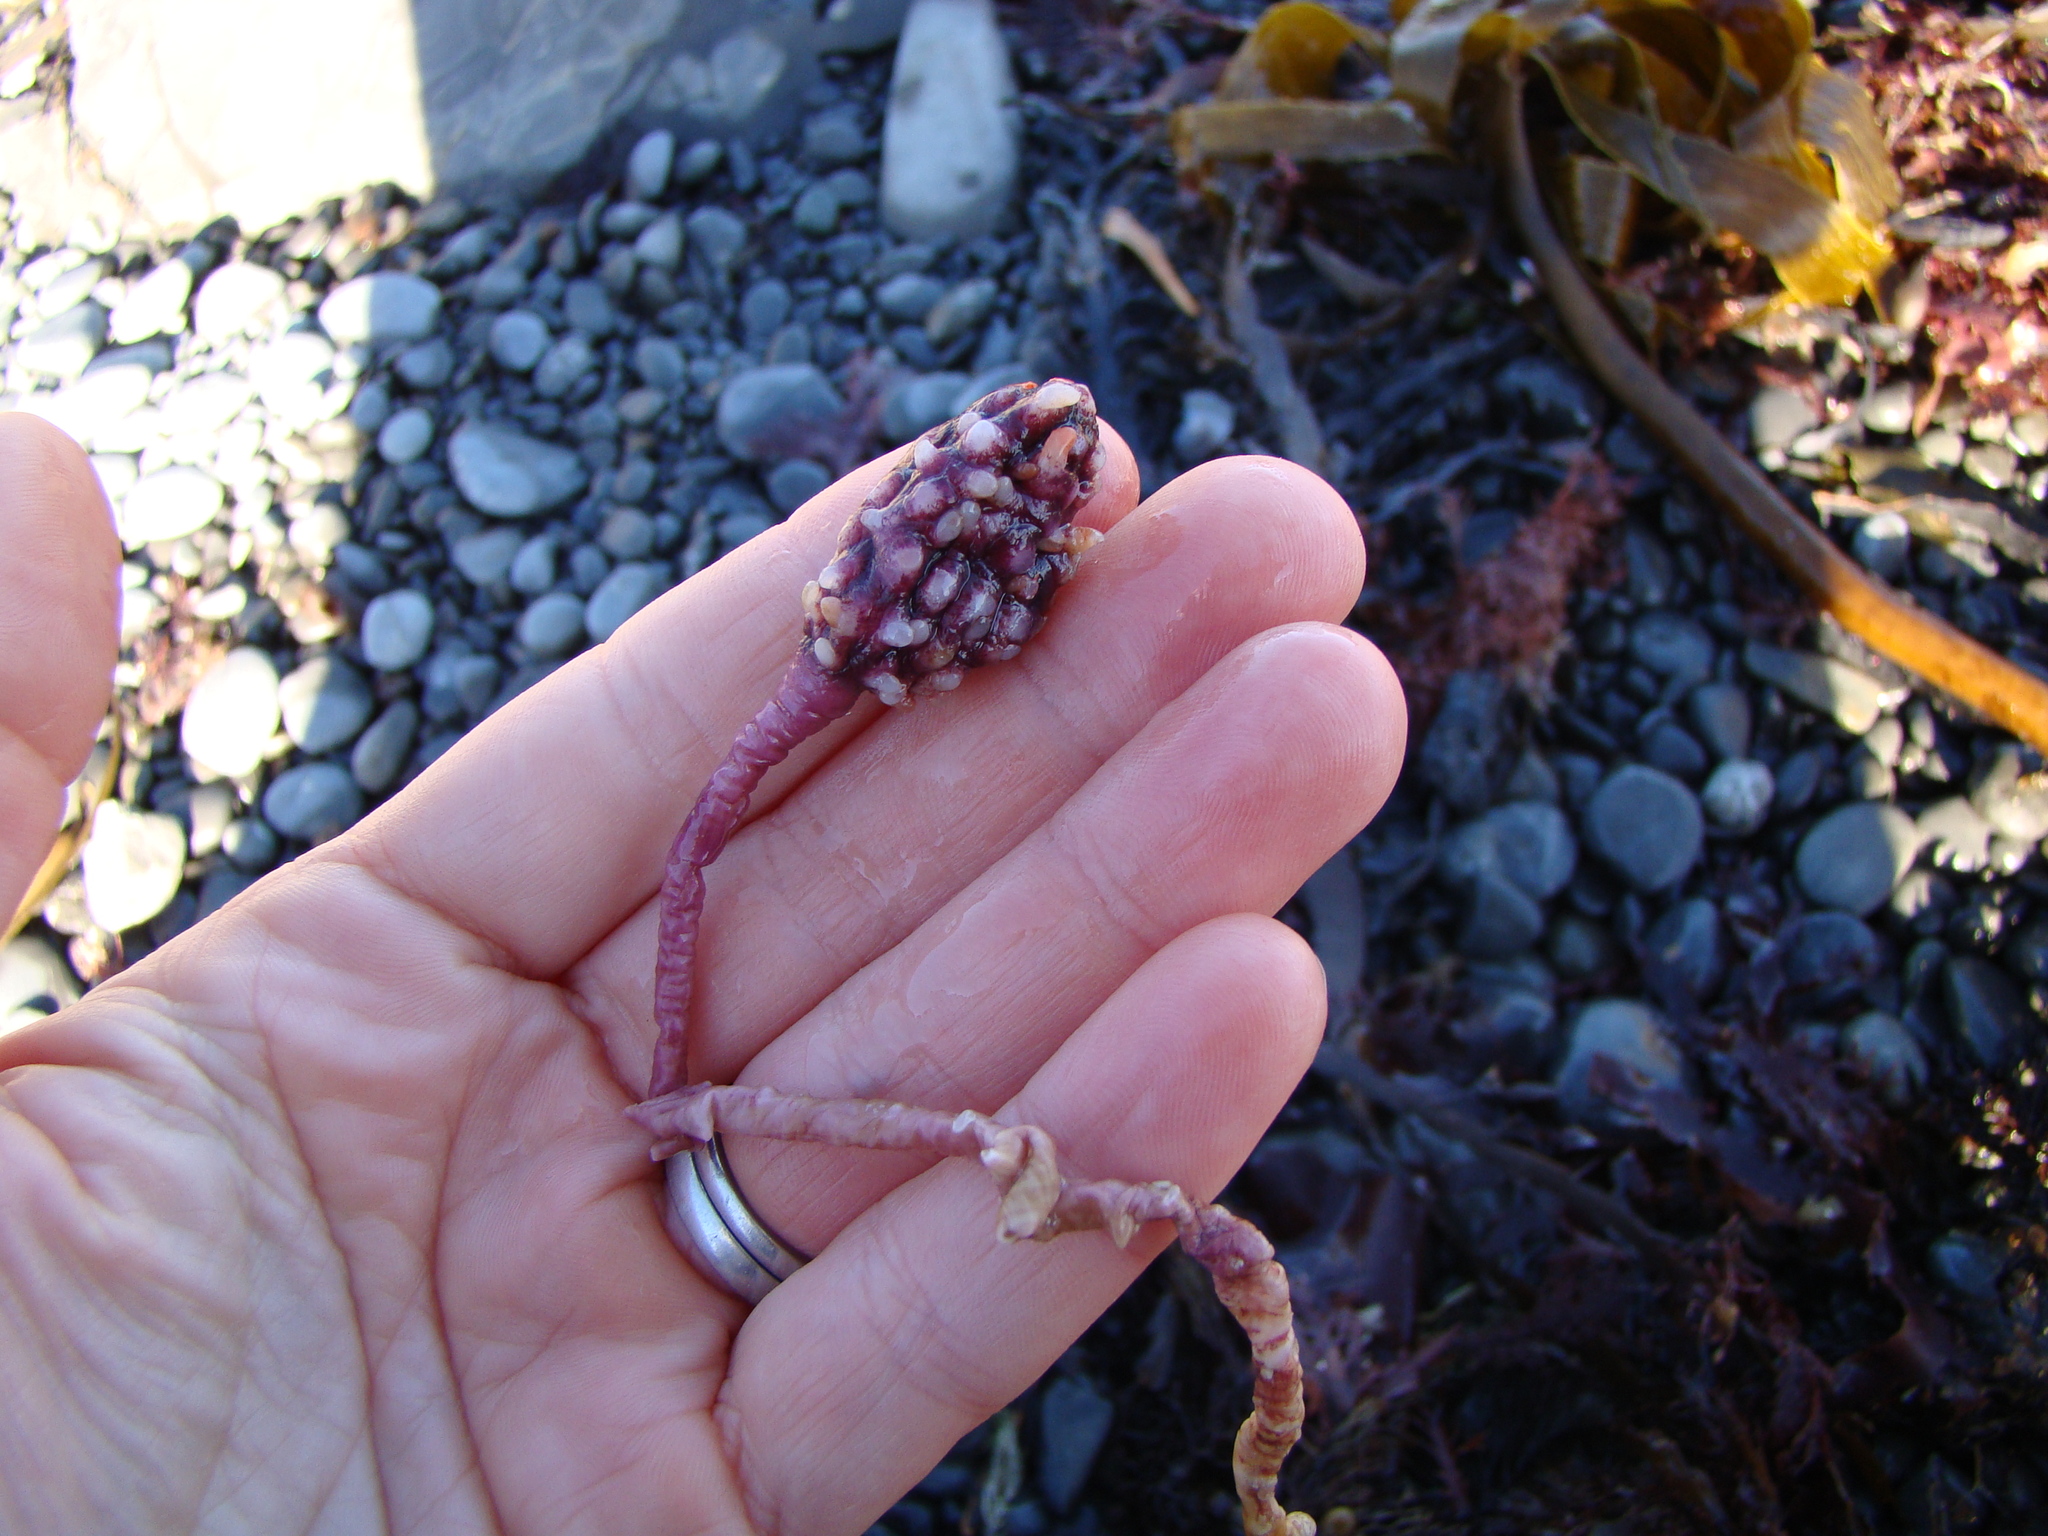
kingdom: Animalia
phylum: Chordata
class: Ascidiacea
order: Stolidobranchia
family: Pyuridae
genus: Pyura
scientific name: Pyura pachydermatina
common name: Sea tulip
